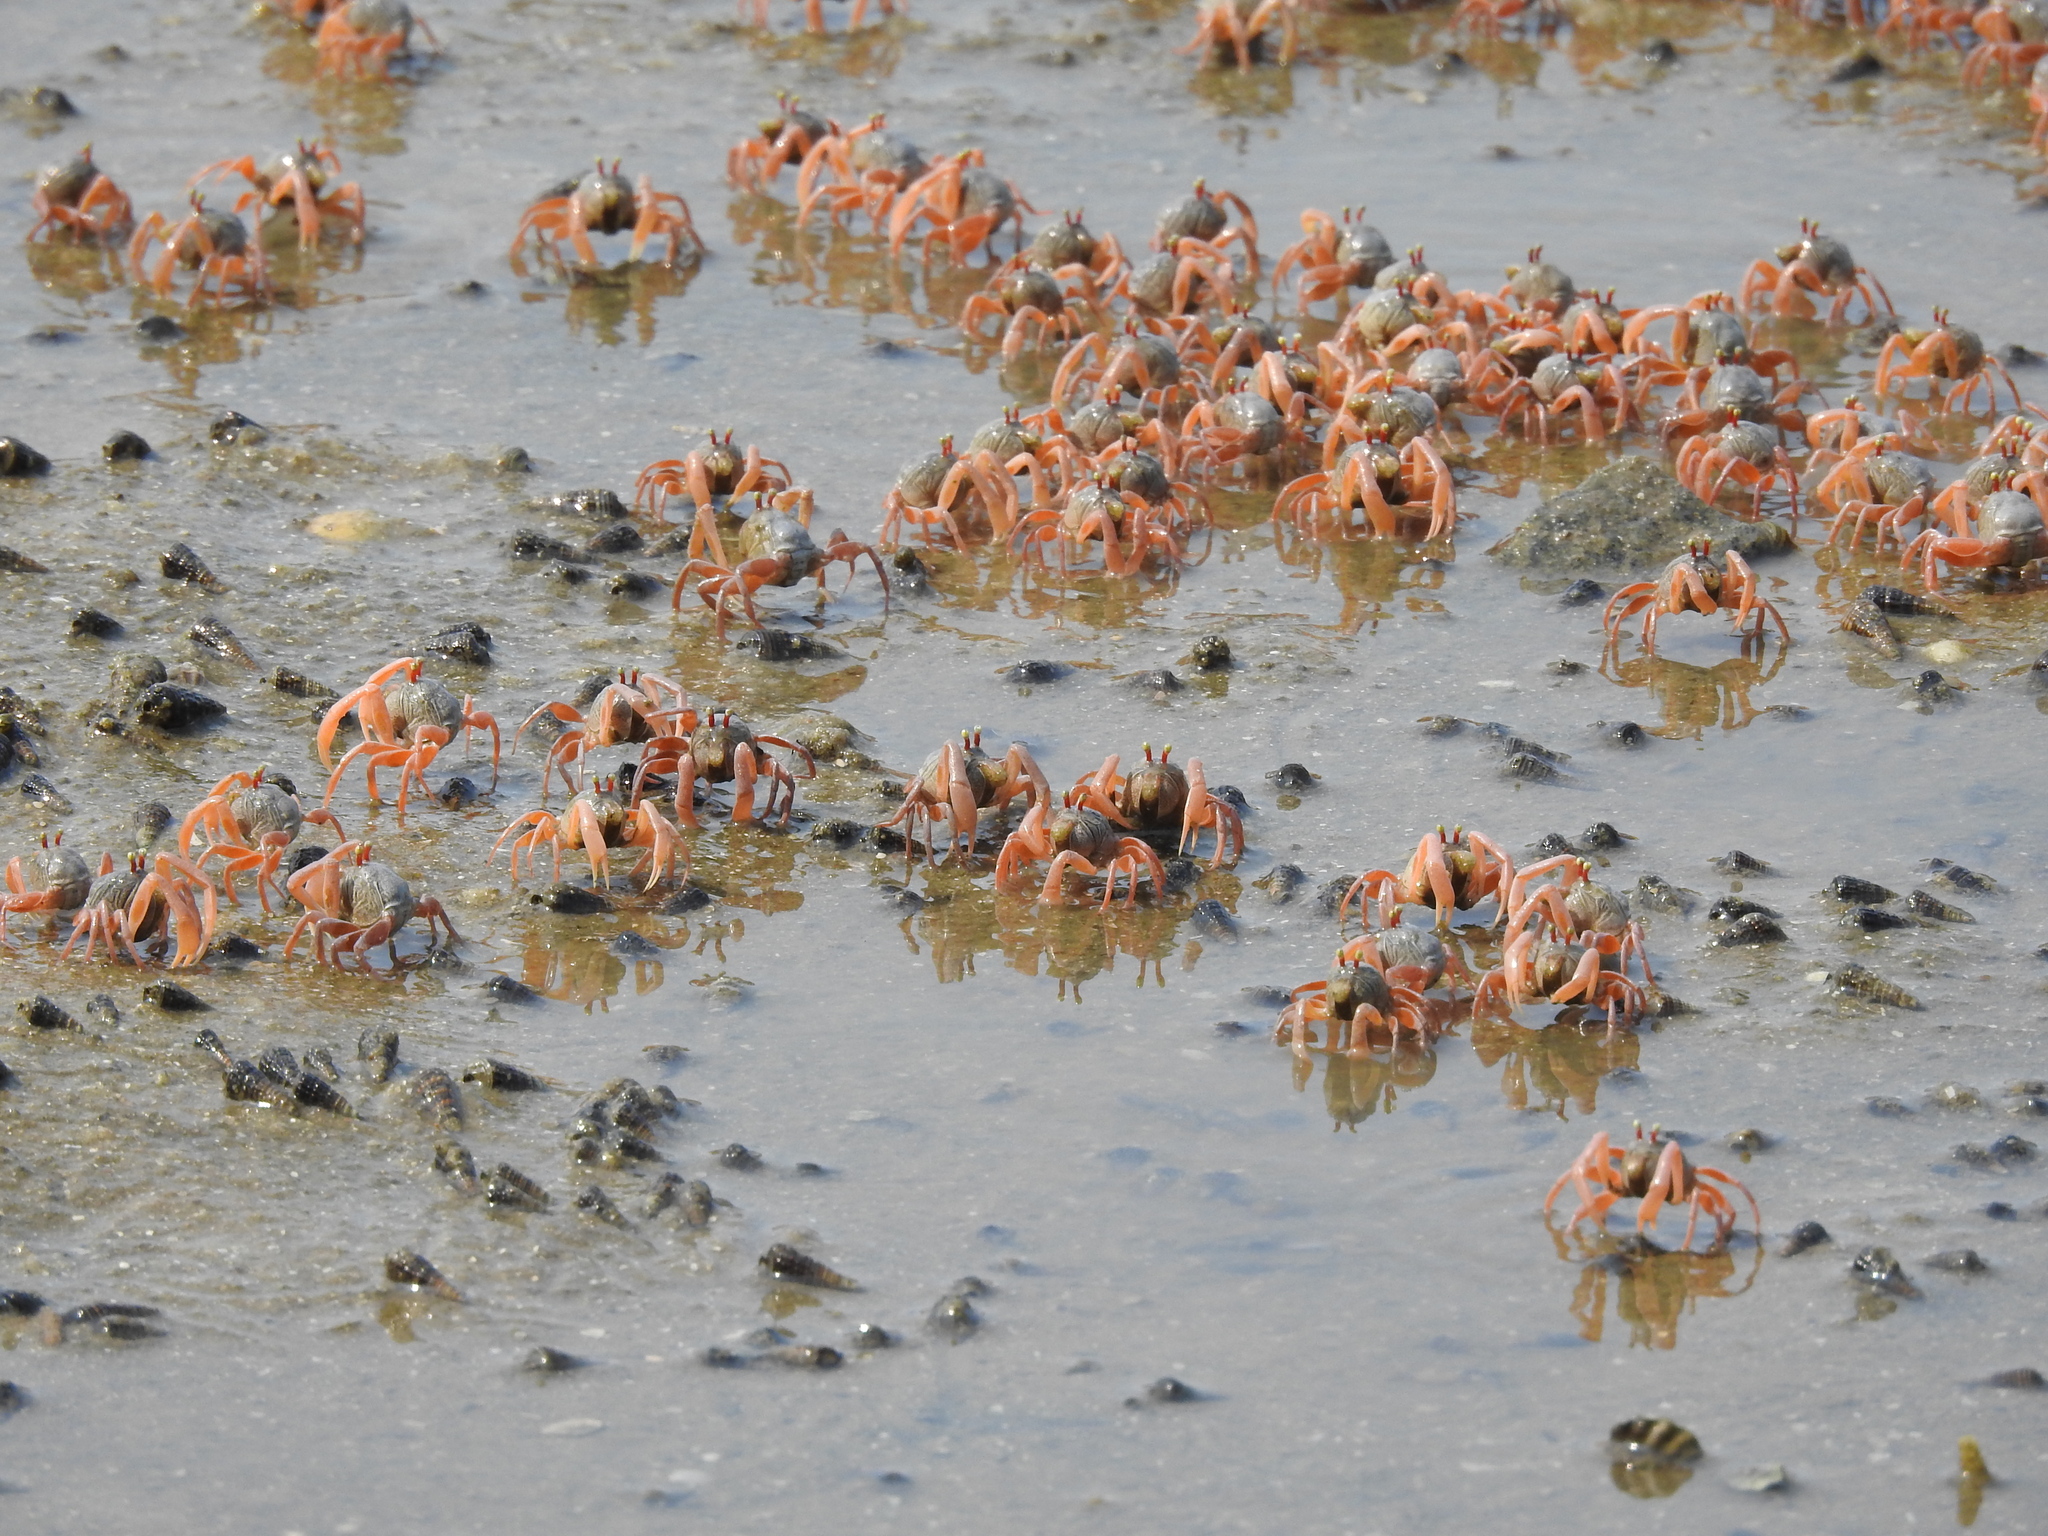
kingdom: Animalia
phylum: Arthropoda
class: Malacostraca
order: Decapoda
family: Dotillidae
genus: Dotilla
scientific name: Dotilla myctiroides
